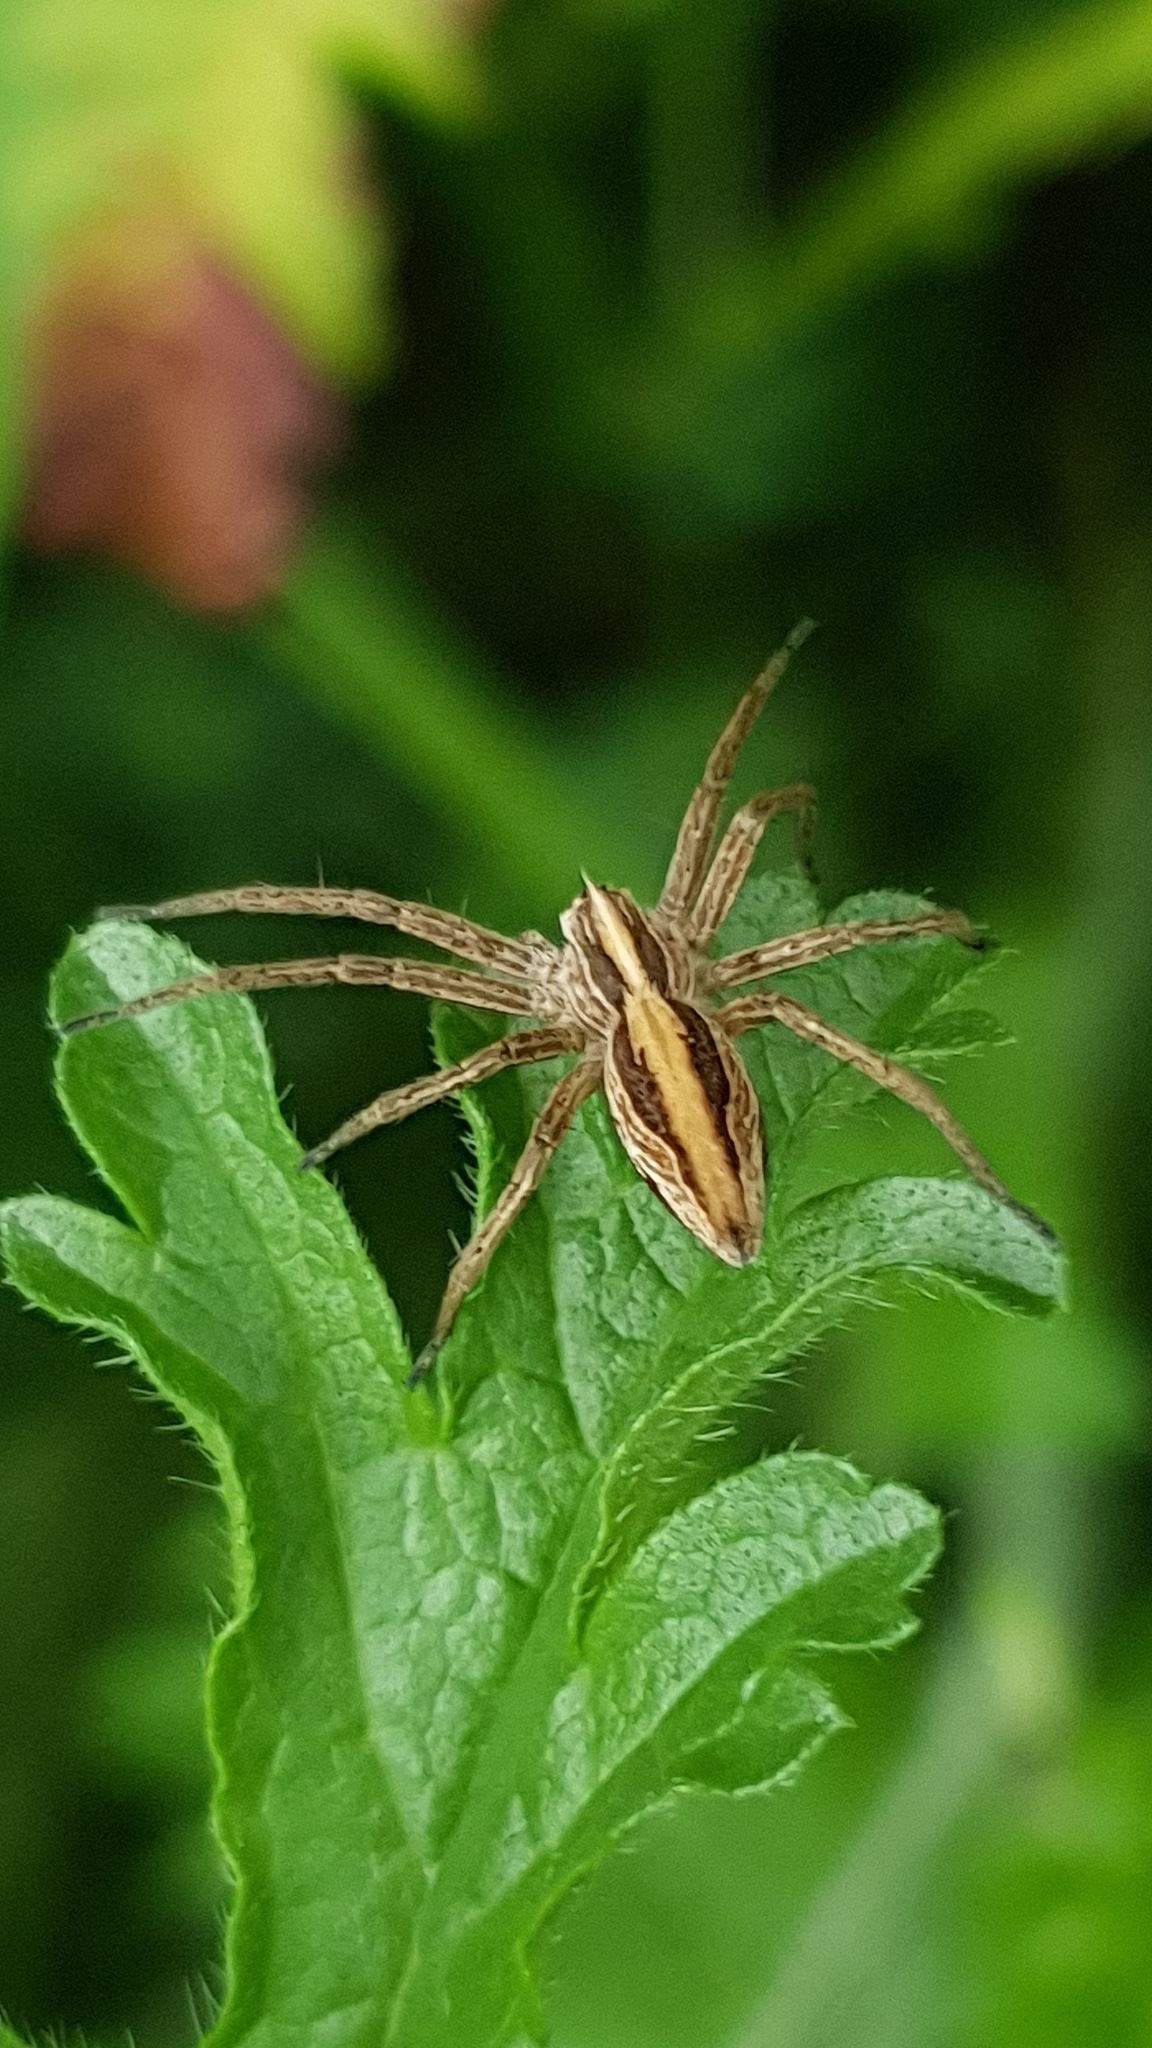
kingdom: Animalia
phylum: Arthropoda
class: Arachnida
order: Araneae
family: Pisauridae
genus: Pisaura
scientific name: Pisaura mirabilis
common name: Tent spider
